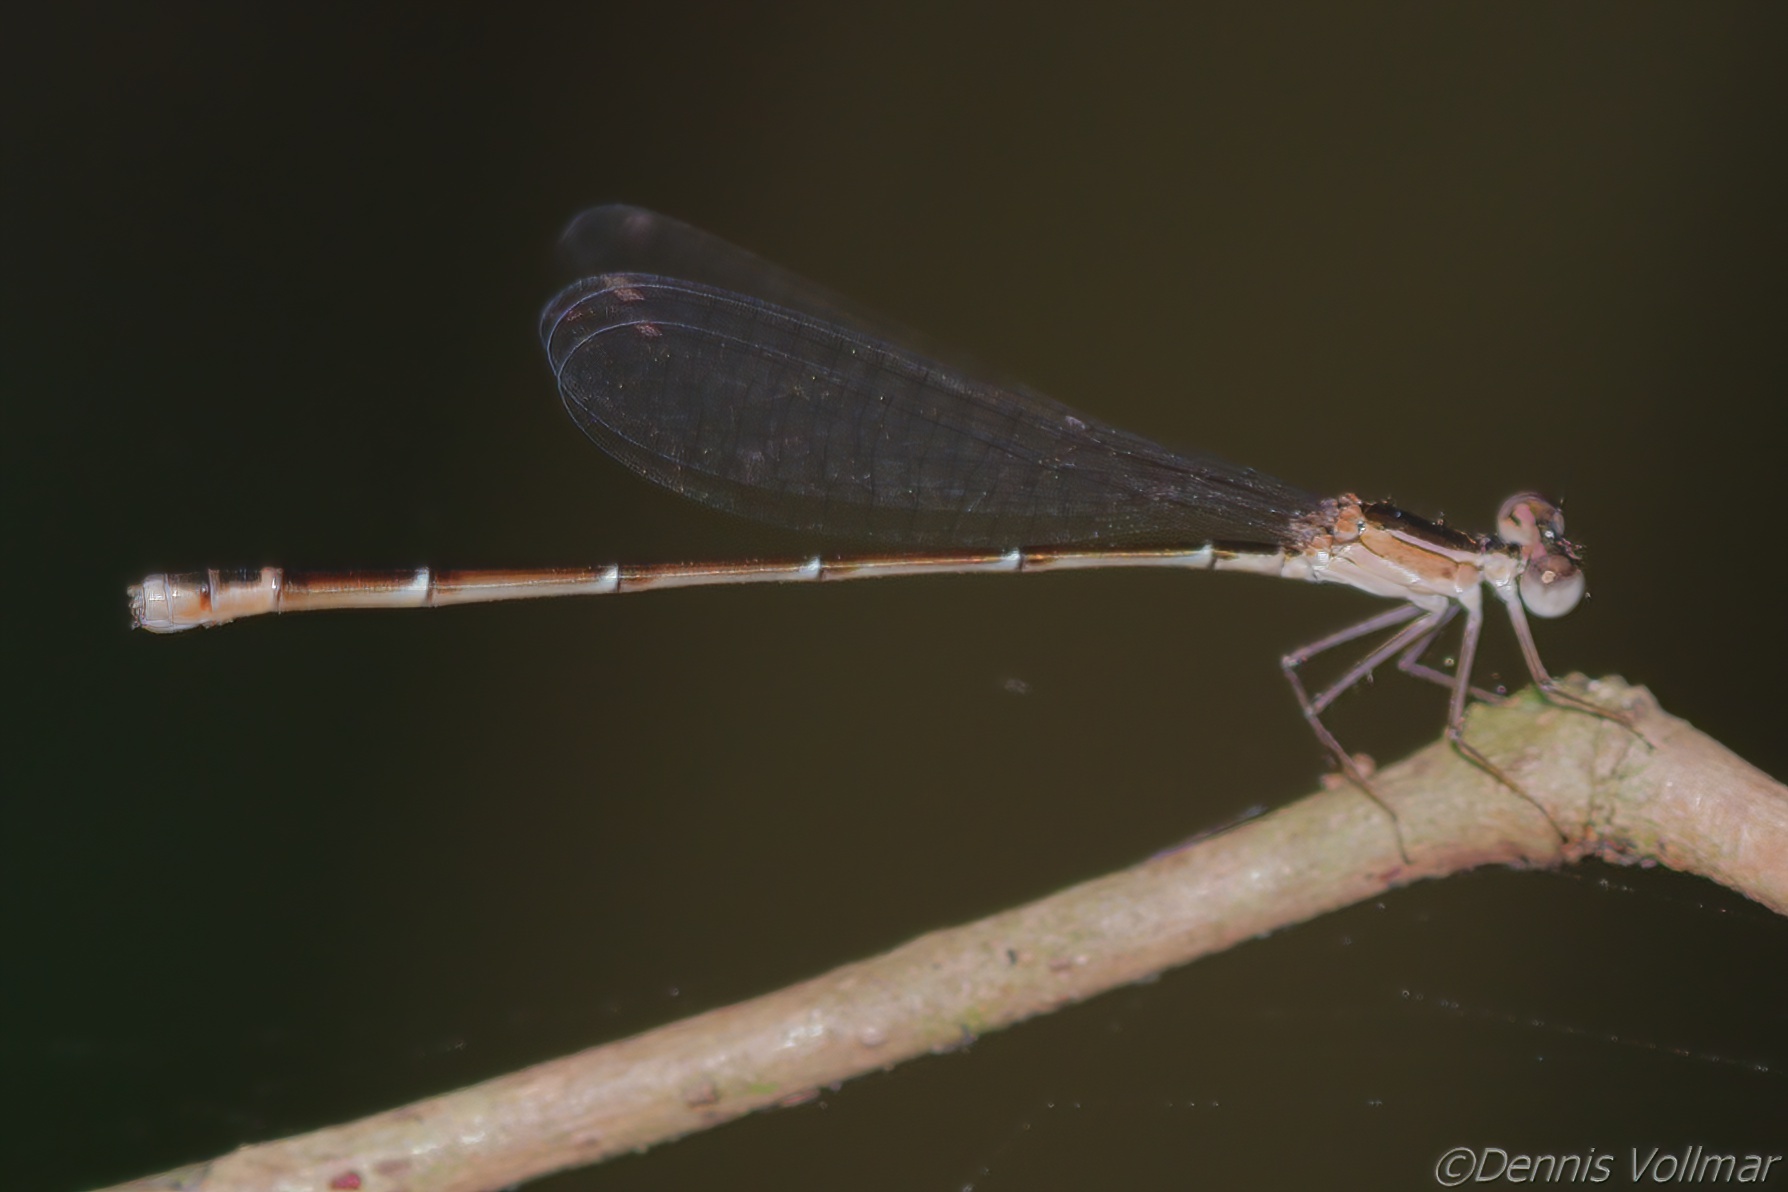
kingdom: Animalia
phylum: Arthropoda
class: Insecta
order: Odonata
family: Coenagrionidae
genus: Nehalennia
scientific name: Nehalennia pallidula
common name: Everglades sprite
